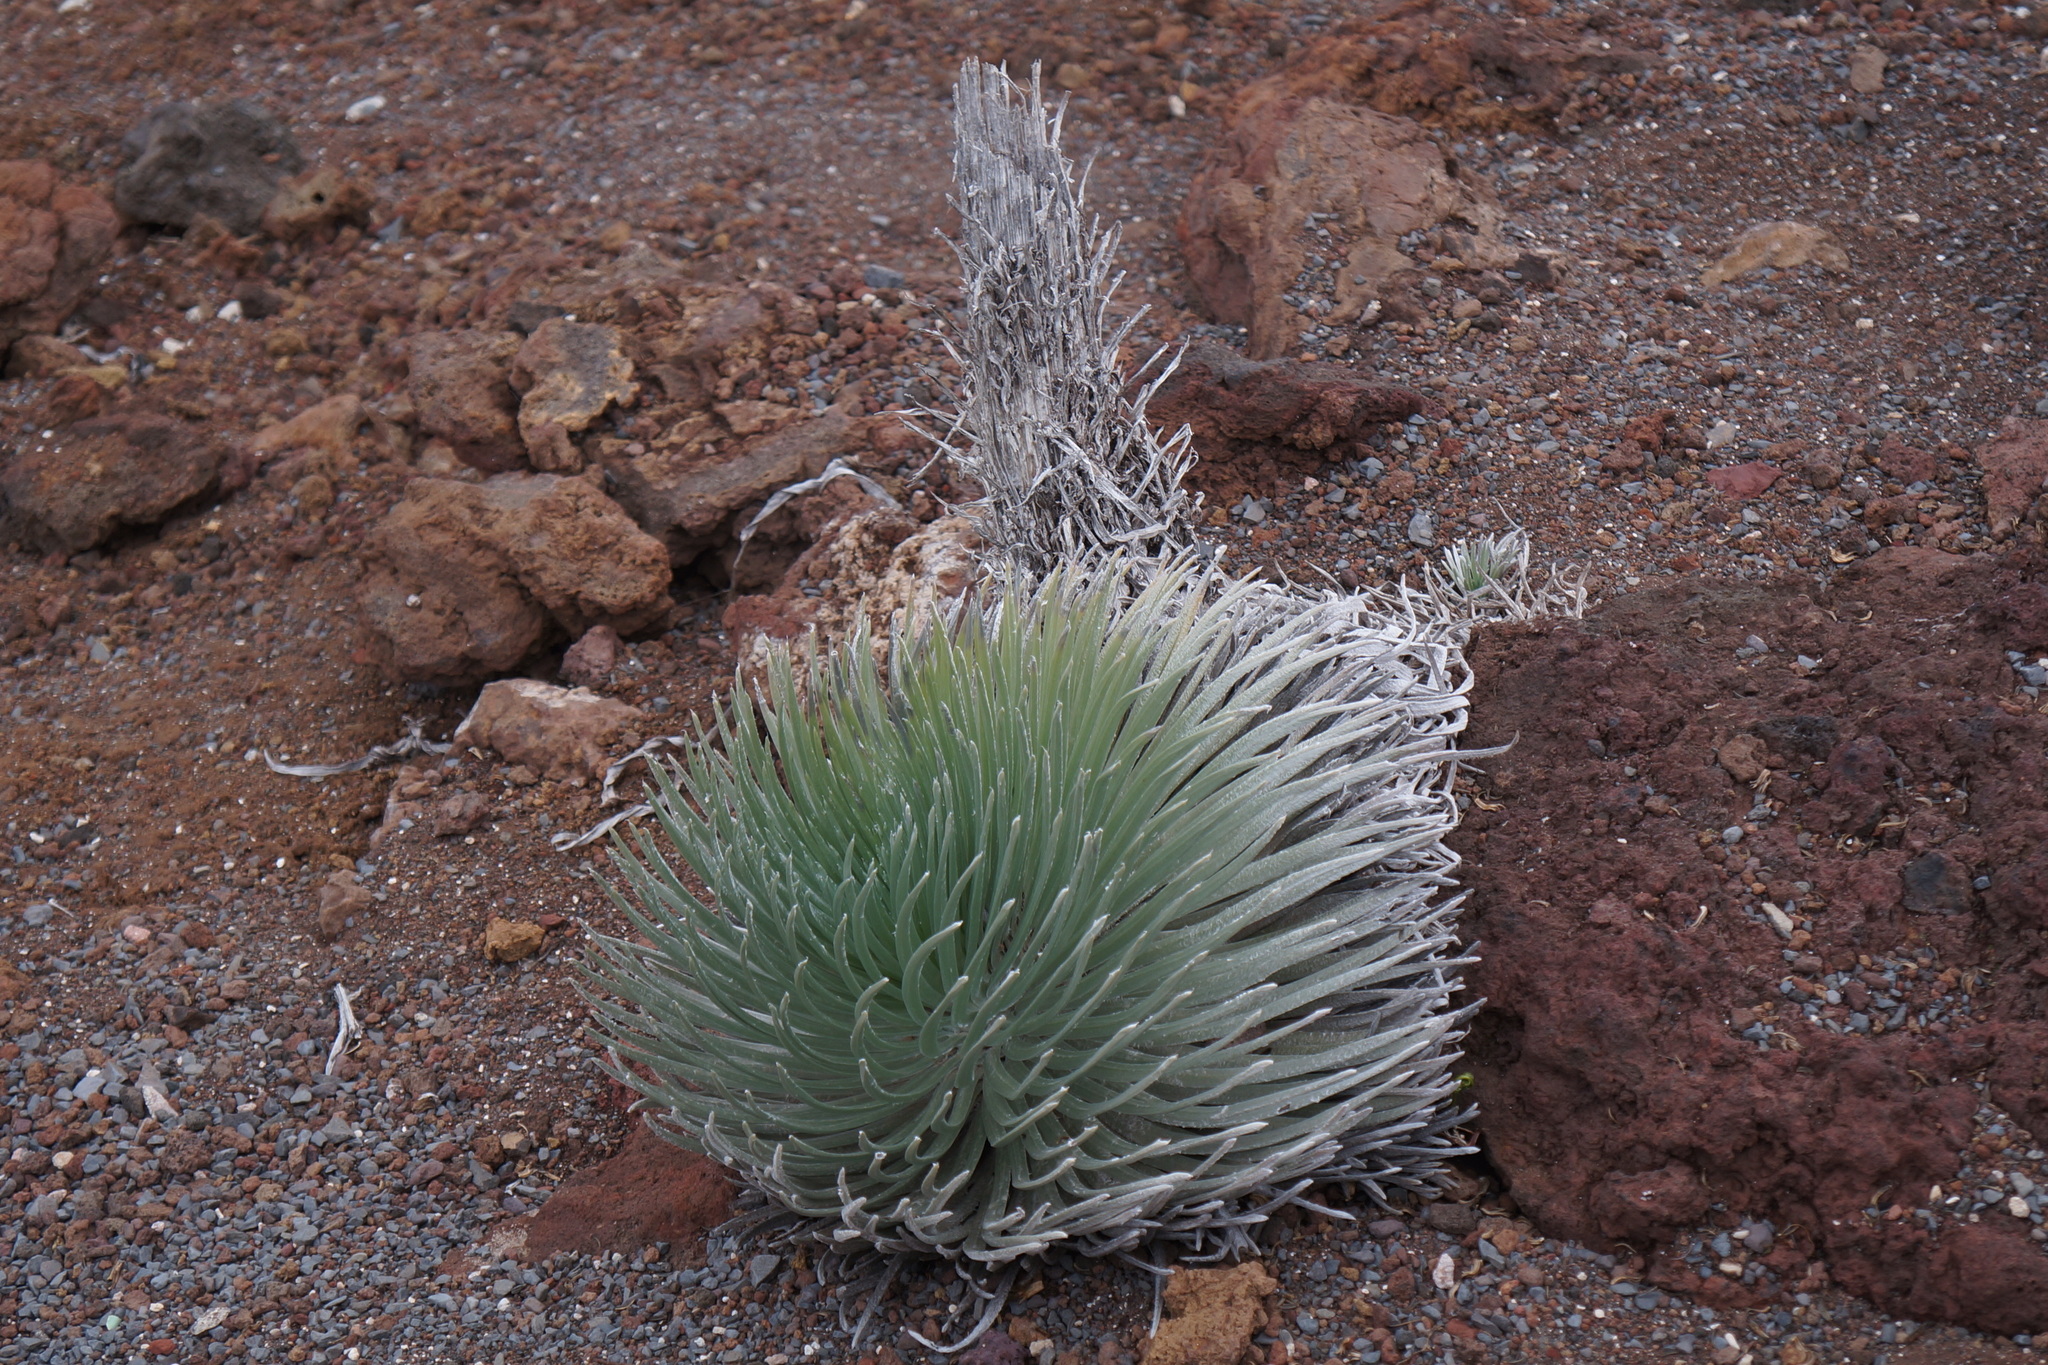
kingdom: Plantae
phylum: Tracheophyta
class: Magnoliopsida
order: Asterales
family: Asteraceae
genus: Argyroxiphium
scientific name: Argyroxiphium sandwicense
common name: Silversword
